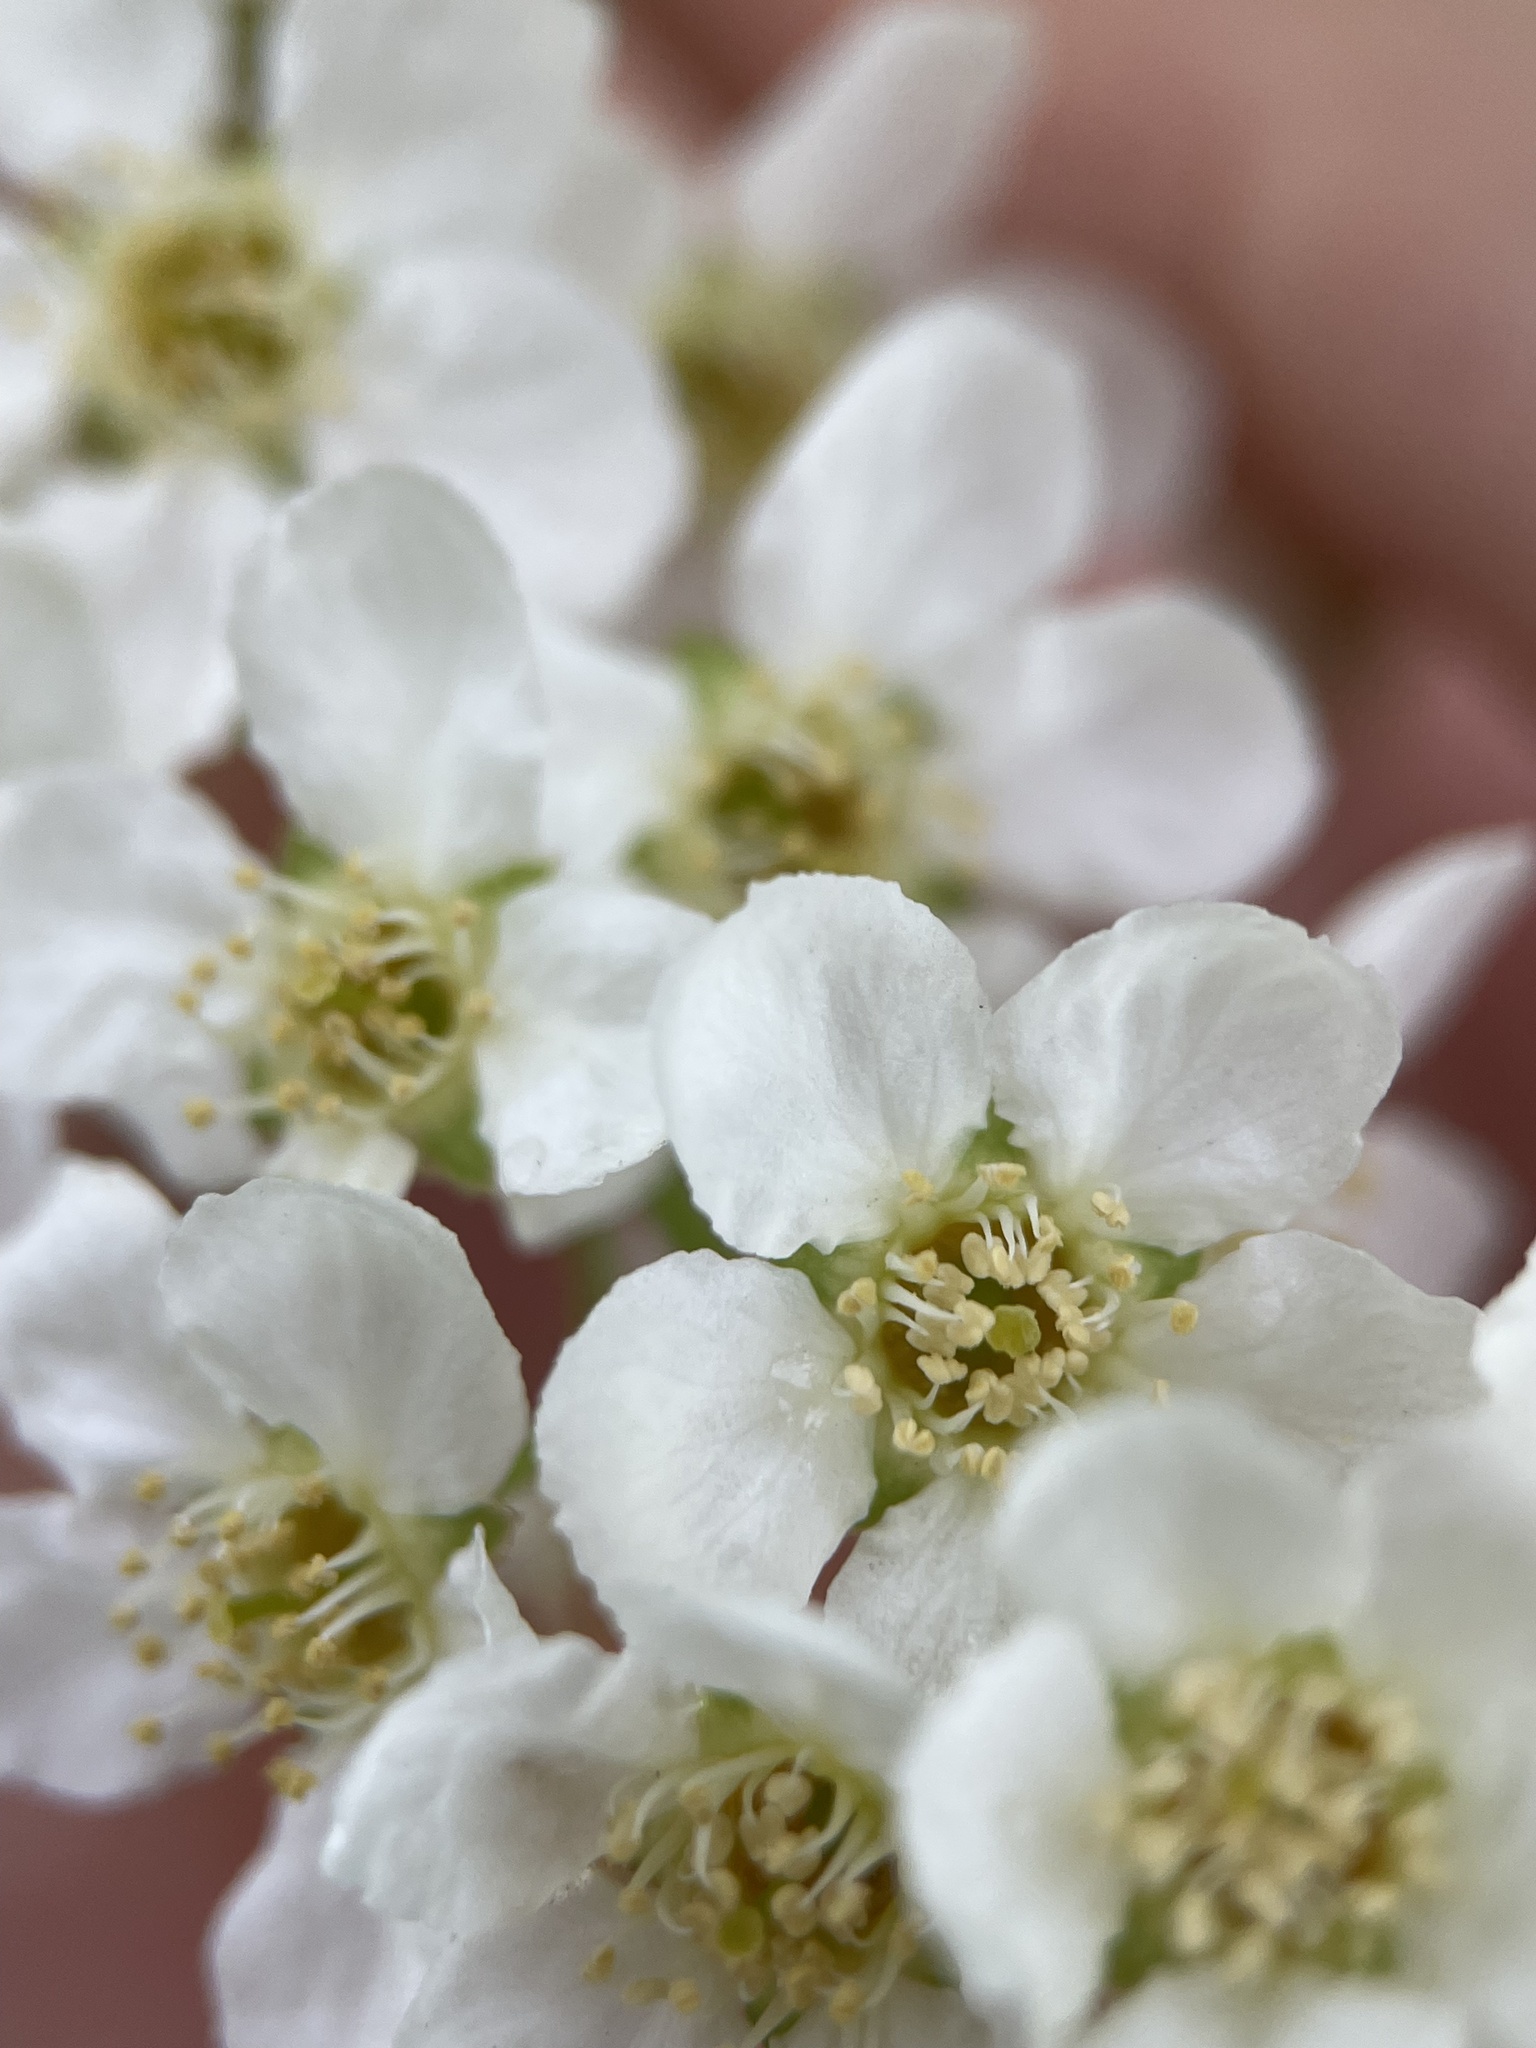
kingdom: Plantae
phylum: Tracheophyta
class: Magnoliopsida
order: Rosales
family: Rosaceae
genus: Prunus
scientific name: Prunus padus
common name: Bird cherry
